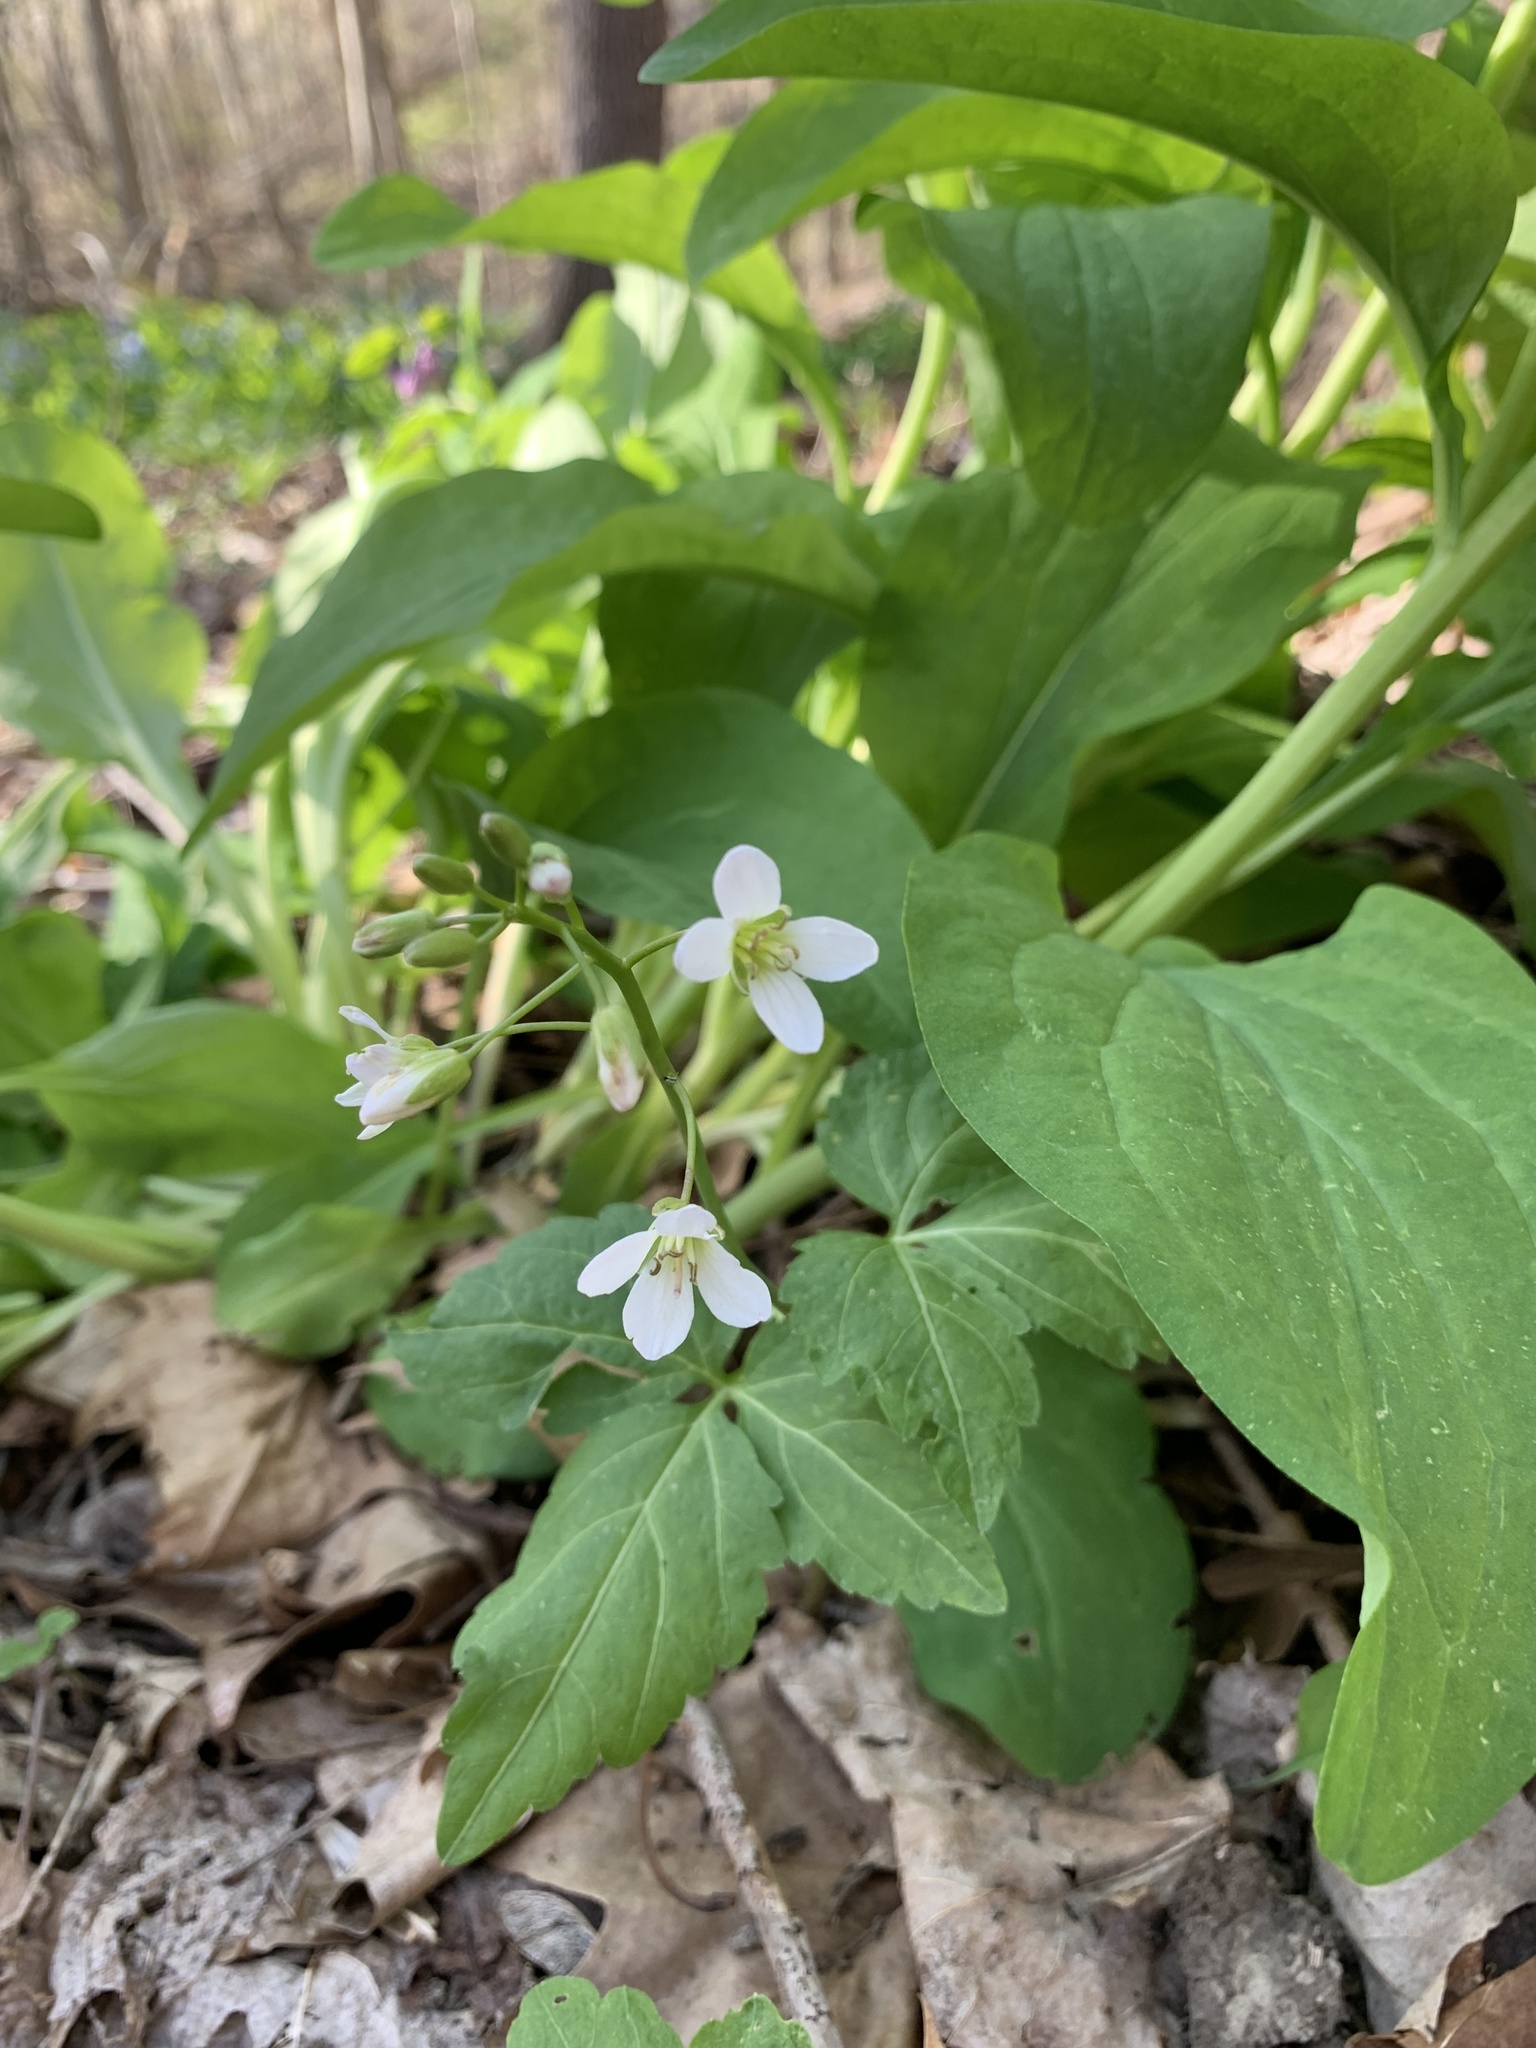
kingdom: Plantae
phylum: Tracheophyta
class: Magnoliopsida
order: Brassicales
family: Brassicaceae
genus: Cardamine
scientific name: Cardamine diphylla
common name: Broad-leaved toothwort
